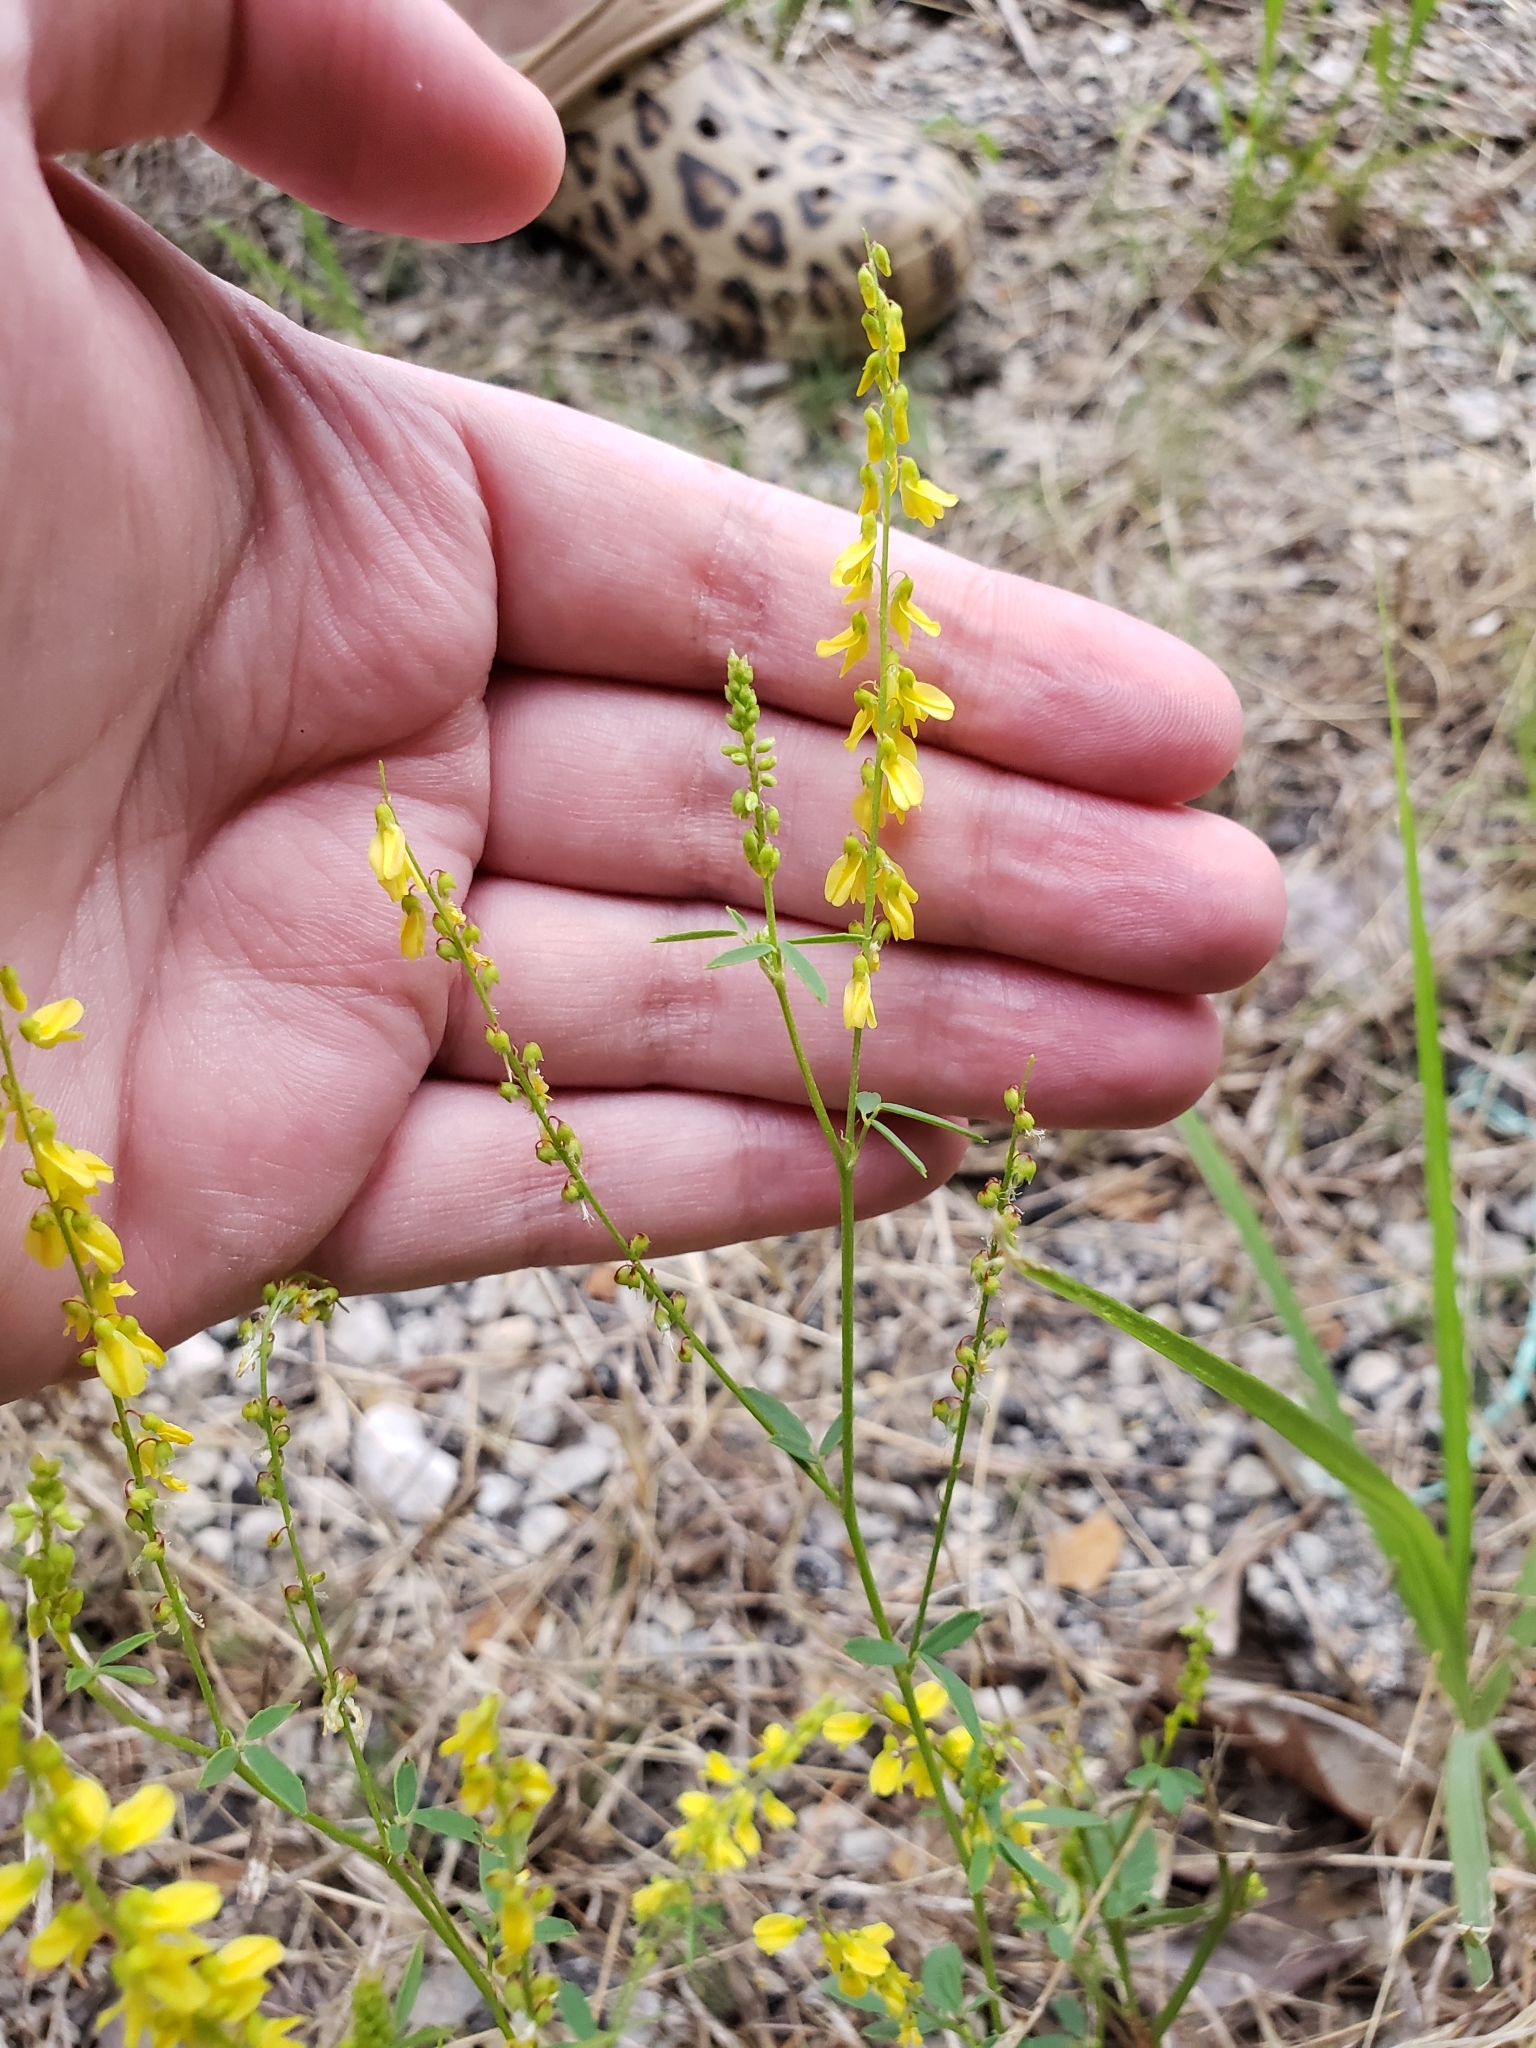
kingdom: Plantae
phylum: Tracheophyta
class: Magnoliopsida
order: Fabales
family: Fabaceae
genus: Melilotus
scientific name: Melilotus officinalis
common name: Sweetclover
